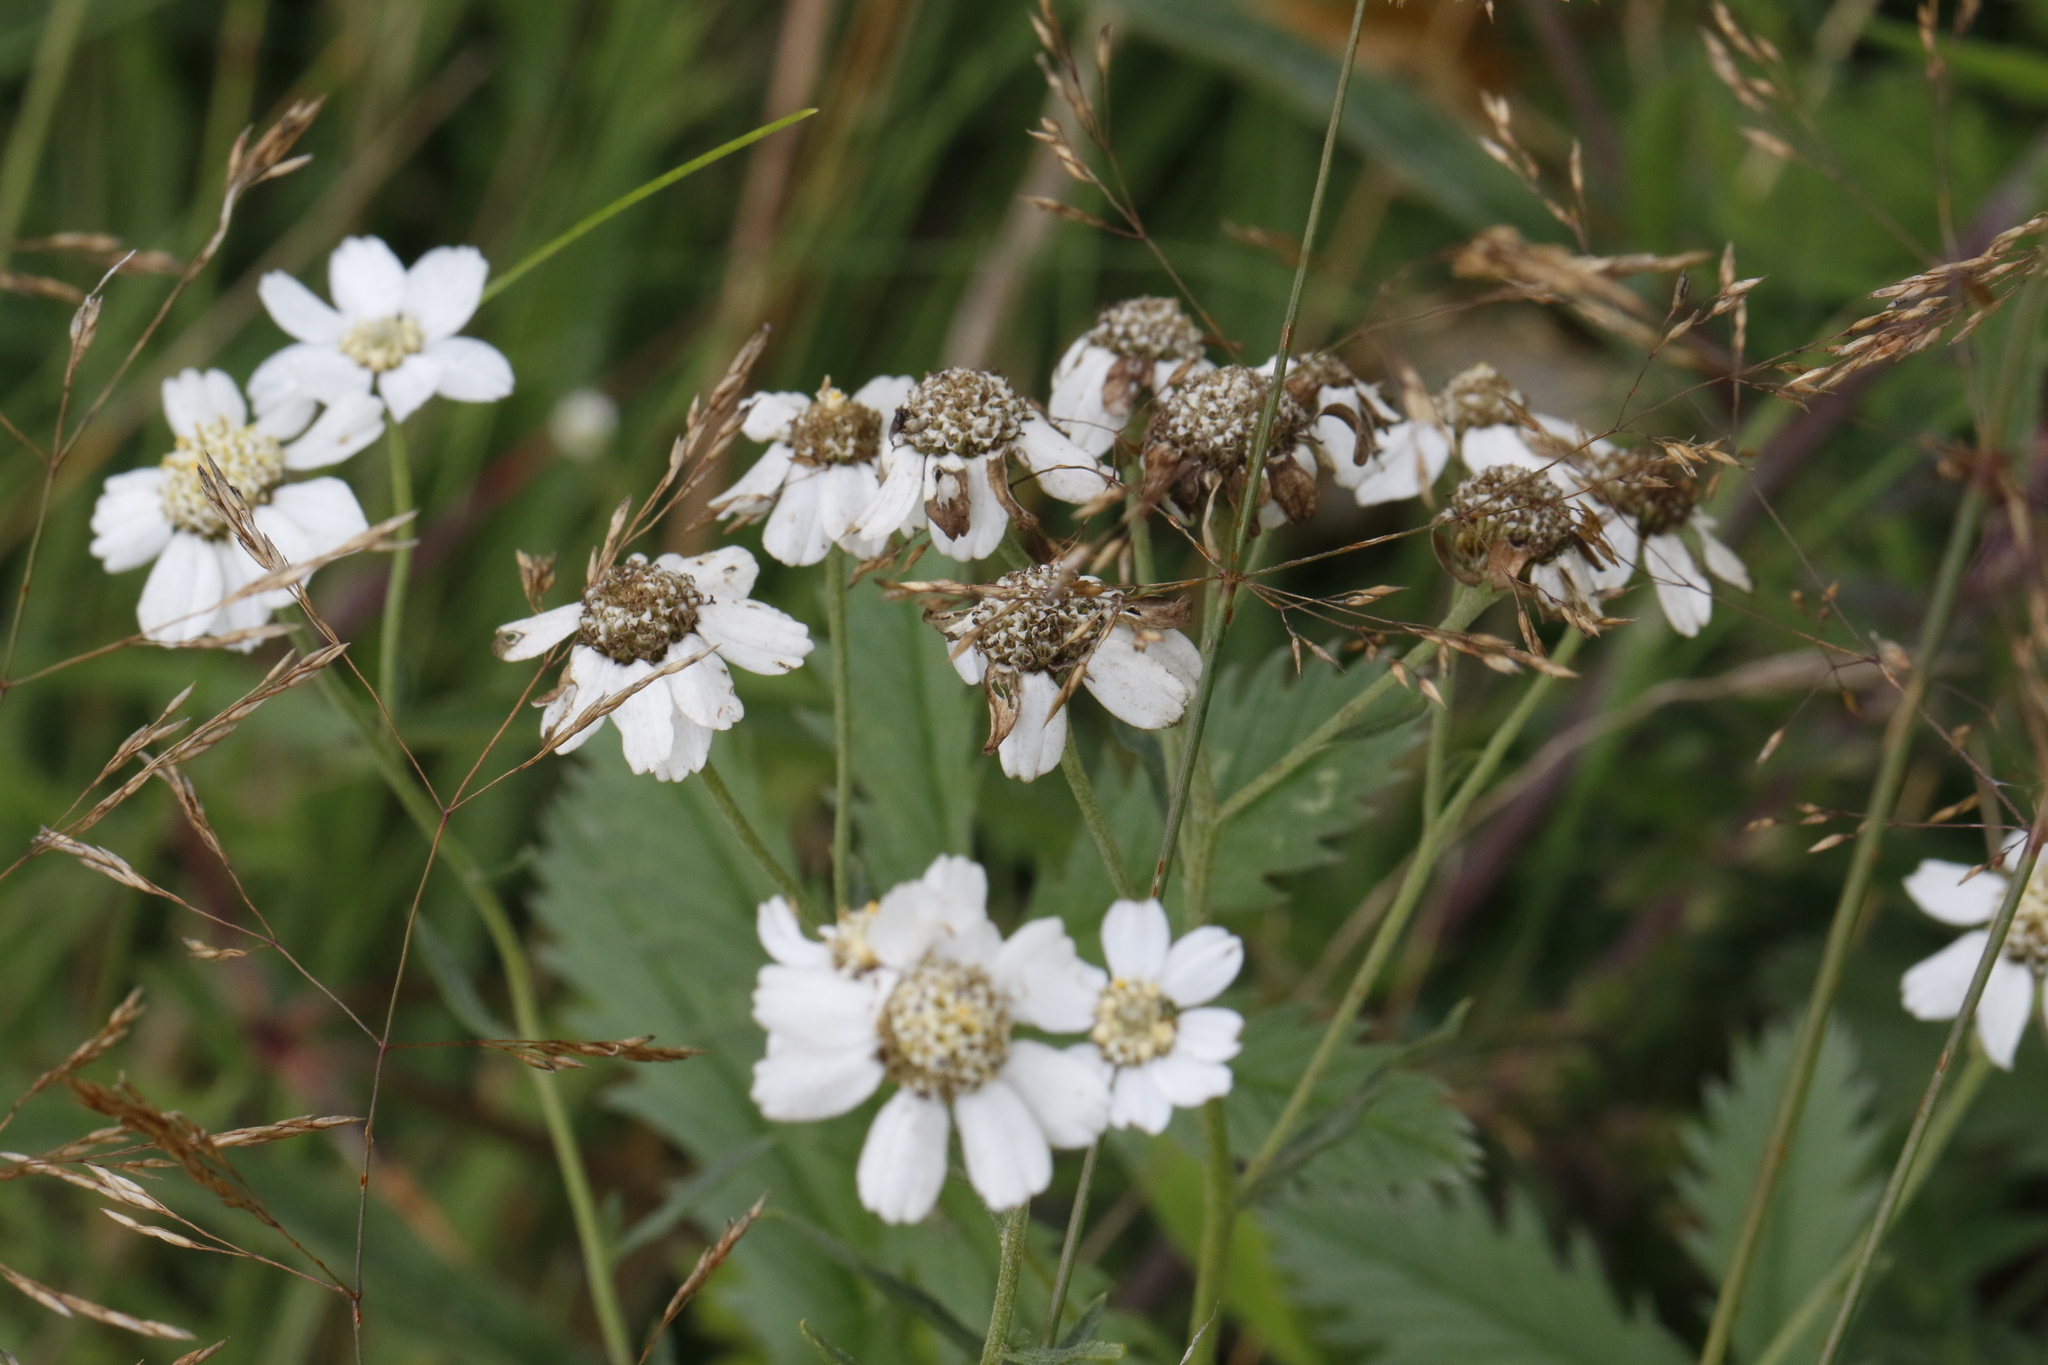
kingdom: Plantae
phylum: Tracheophyta
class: Magnoliopsida
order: Asterales
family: Asteraceae
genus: Achillea
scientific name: Achillea ptarmica
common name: Sneezeweed
